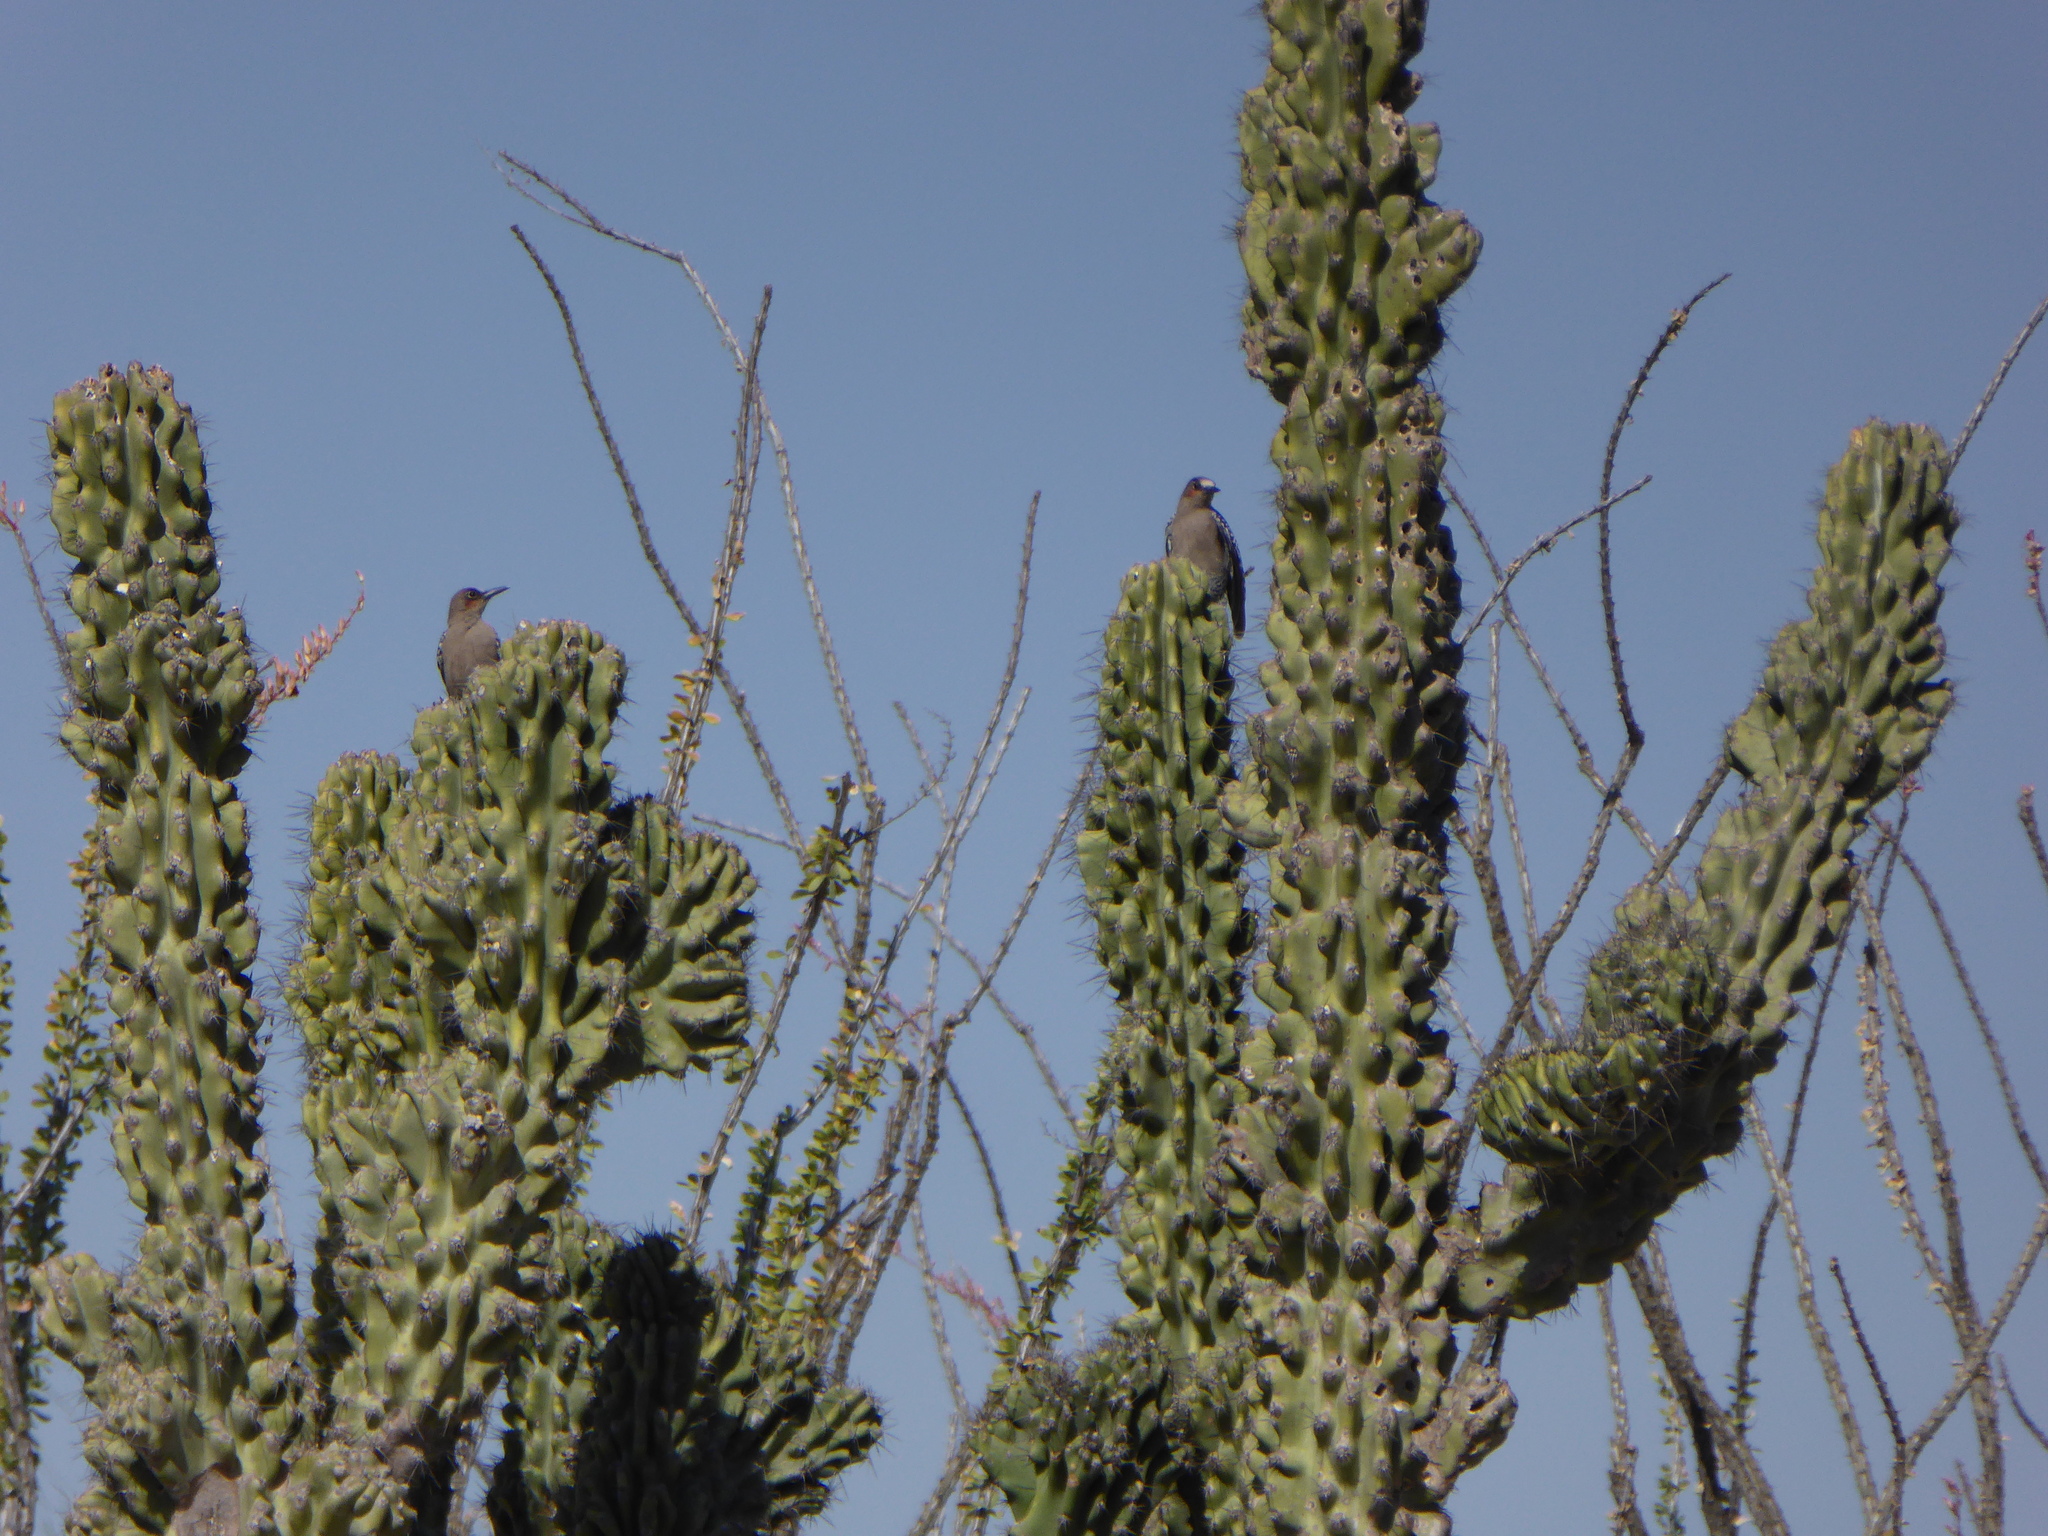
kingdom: Animalia
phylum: Chordata
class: Aves
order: Piciformes
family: Picidae
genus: Melanerpes
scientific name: Melanerpes hypopolius
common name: Grey-breasted woodpecker
